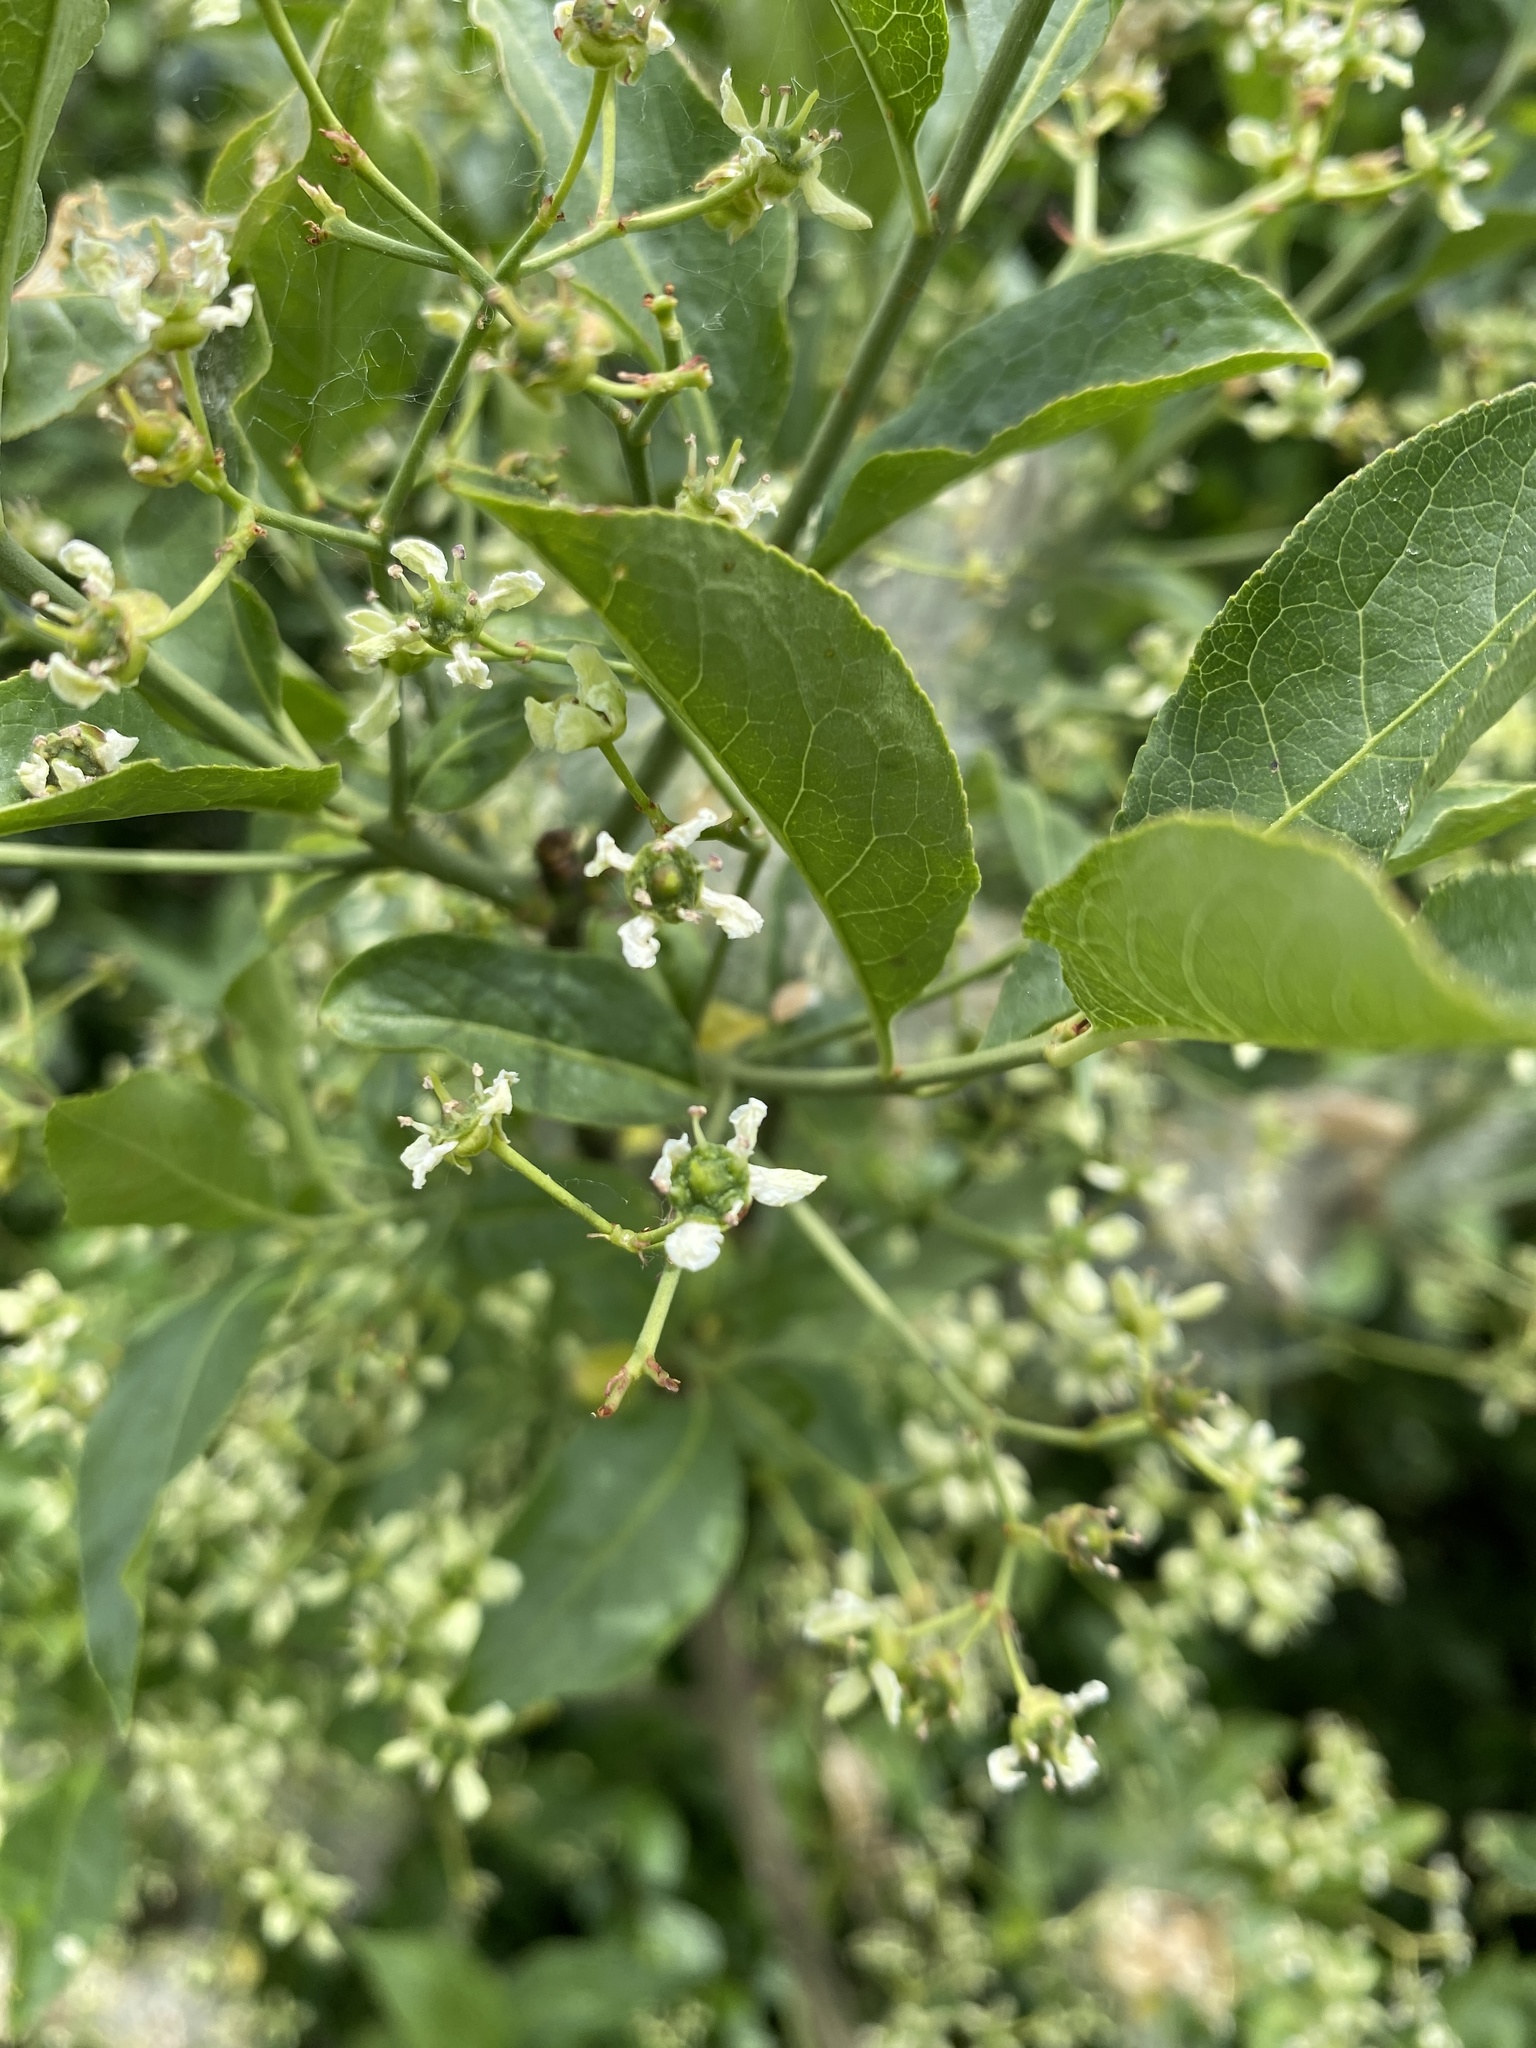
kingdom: Plantae
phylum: Tracheophyta
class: Magnoliopsida
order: Celastrales
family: Celastraceae
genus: Euonymus
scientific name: Euonymus europaeus
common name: Spindle
